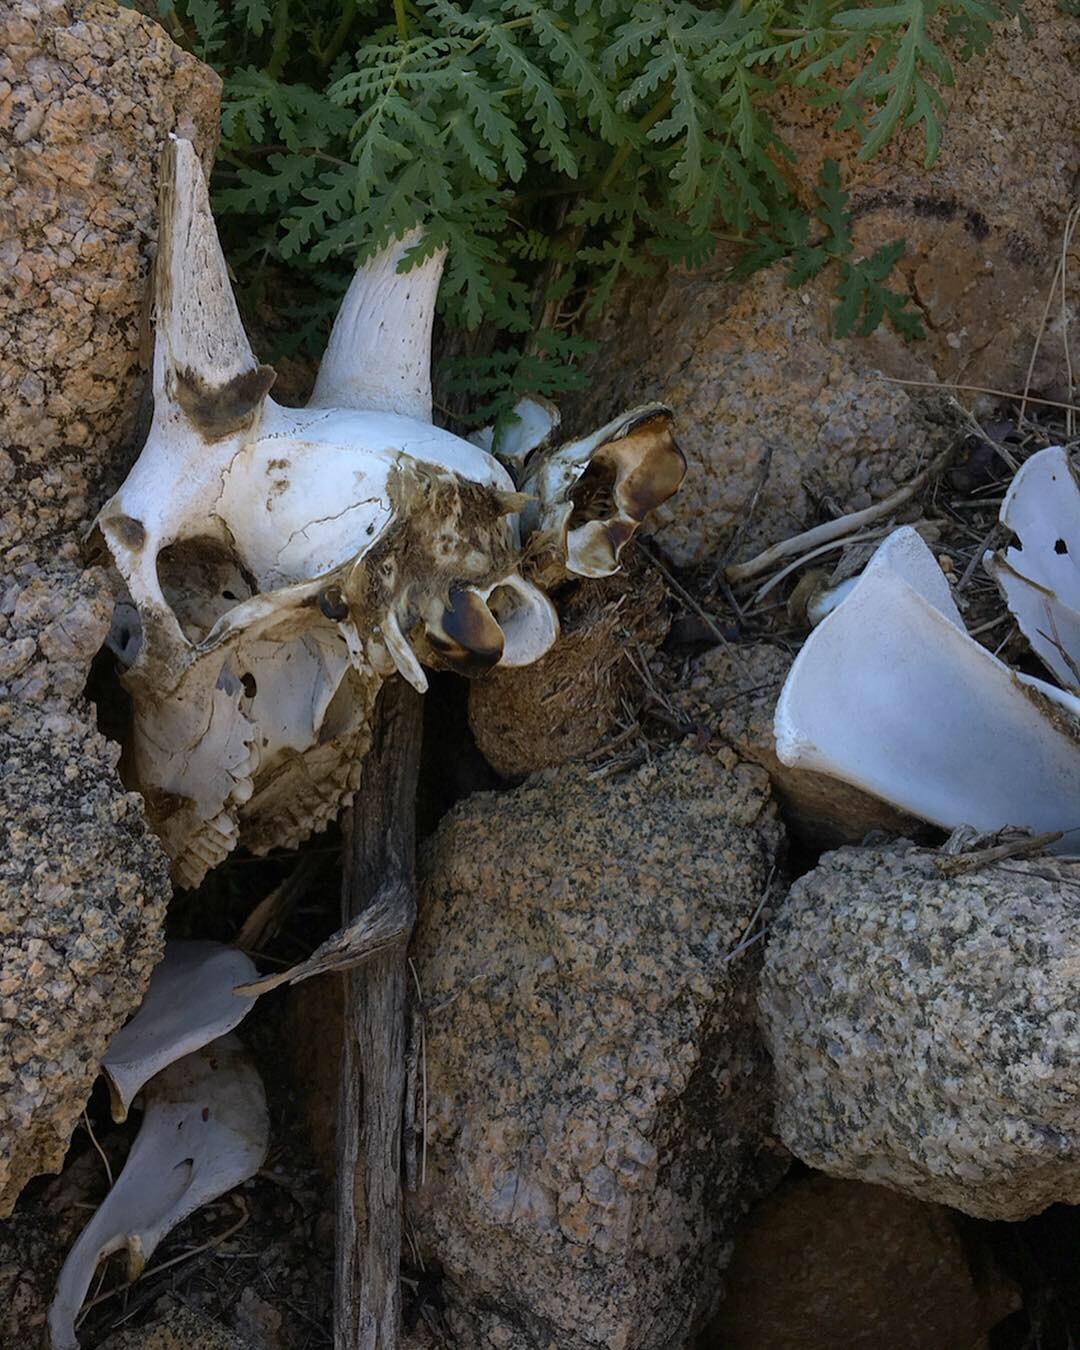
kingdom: Animalia
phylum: Chordata
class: Mammalia
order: Artiodactyla
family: Bovidae
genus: Ovis
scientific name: Ovis canadensis
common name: Bighorn sheep
